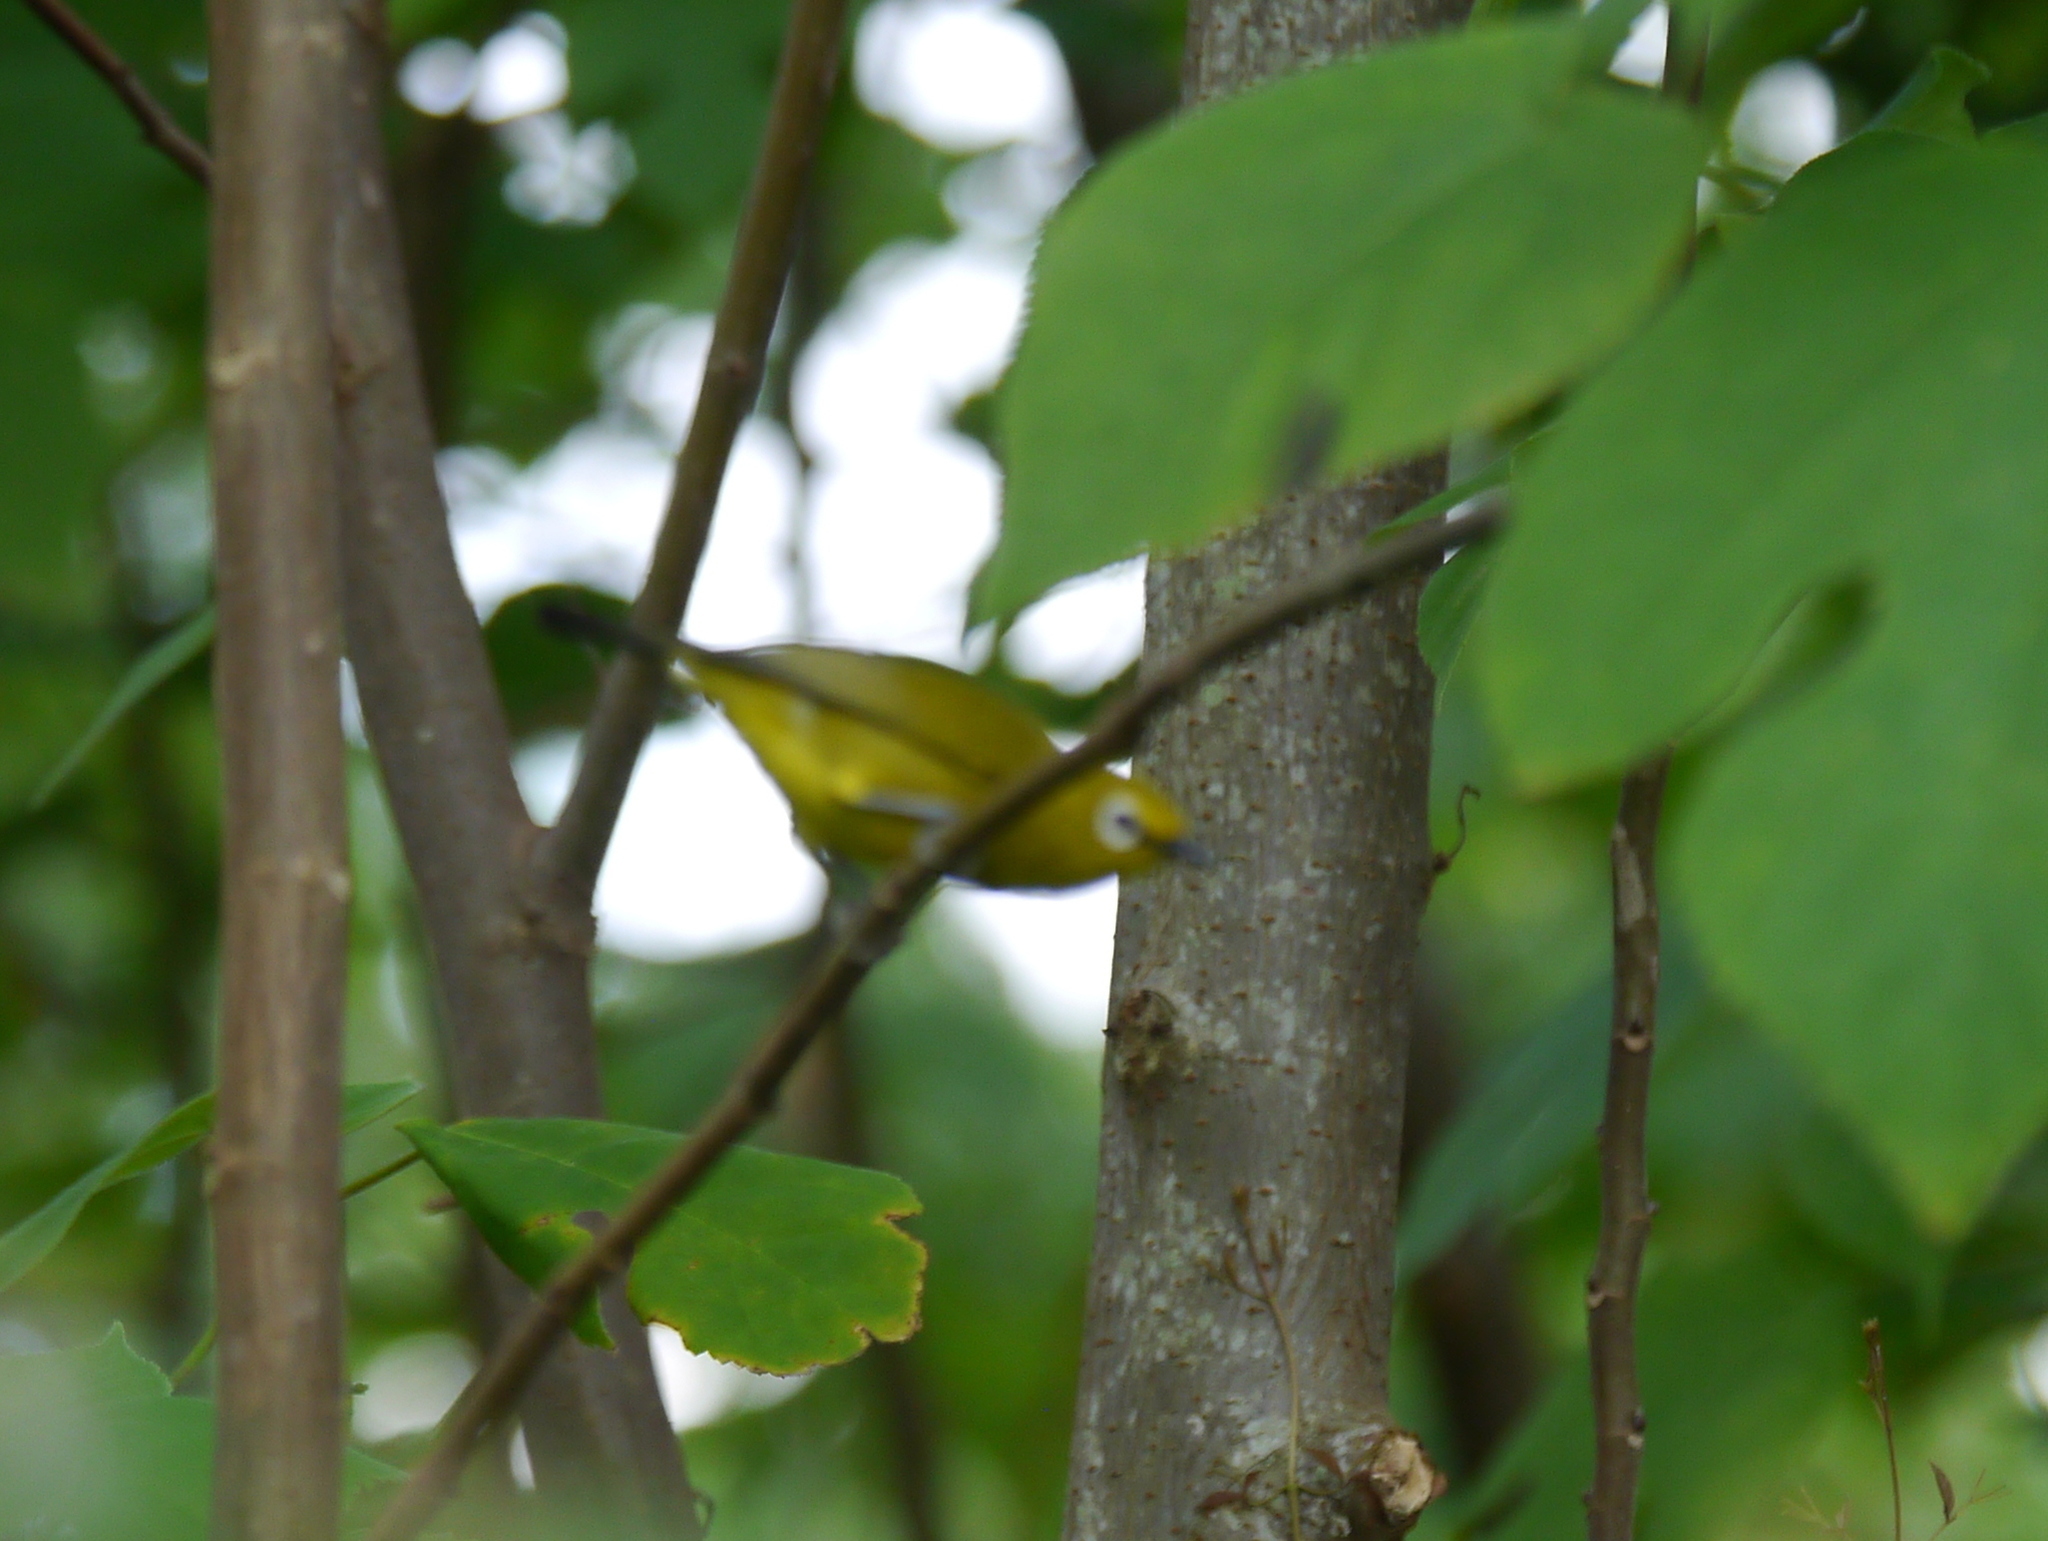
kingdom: Animalia
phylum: Chordata
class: Aves
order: Passeriformes
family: Zosteropidae
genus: Zosterops
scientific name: Zosterops stuhlmanni
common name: Green white-eye
